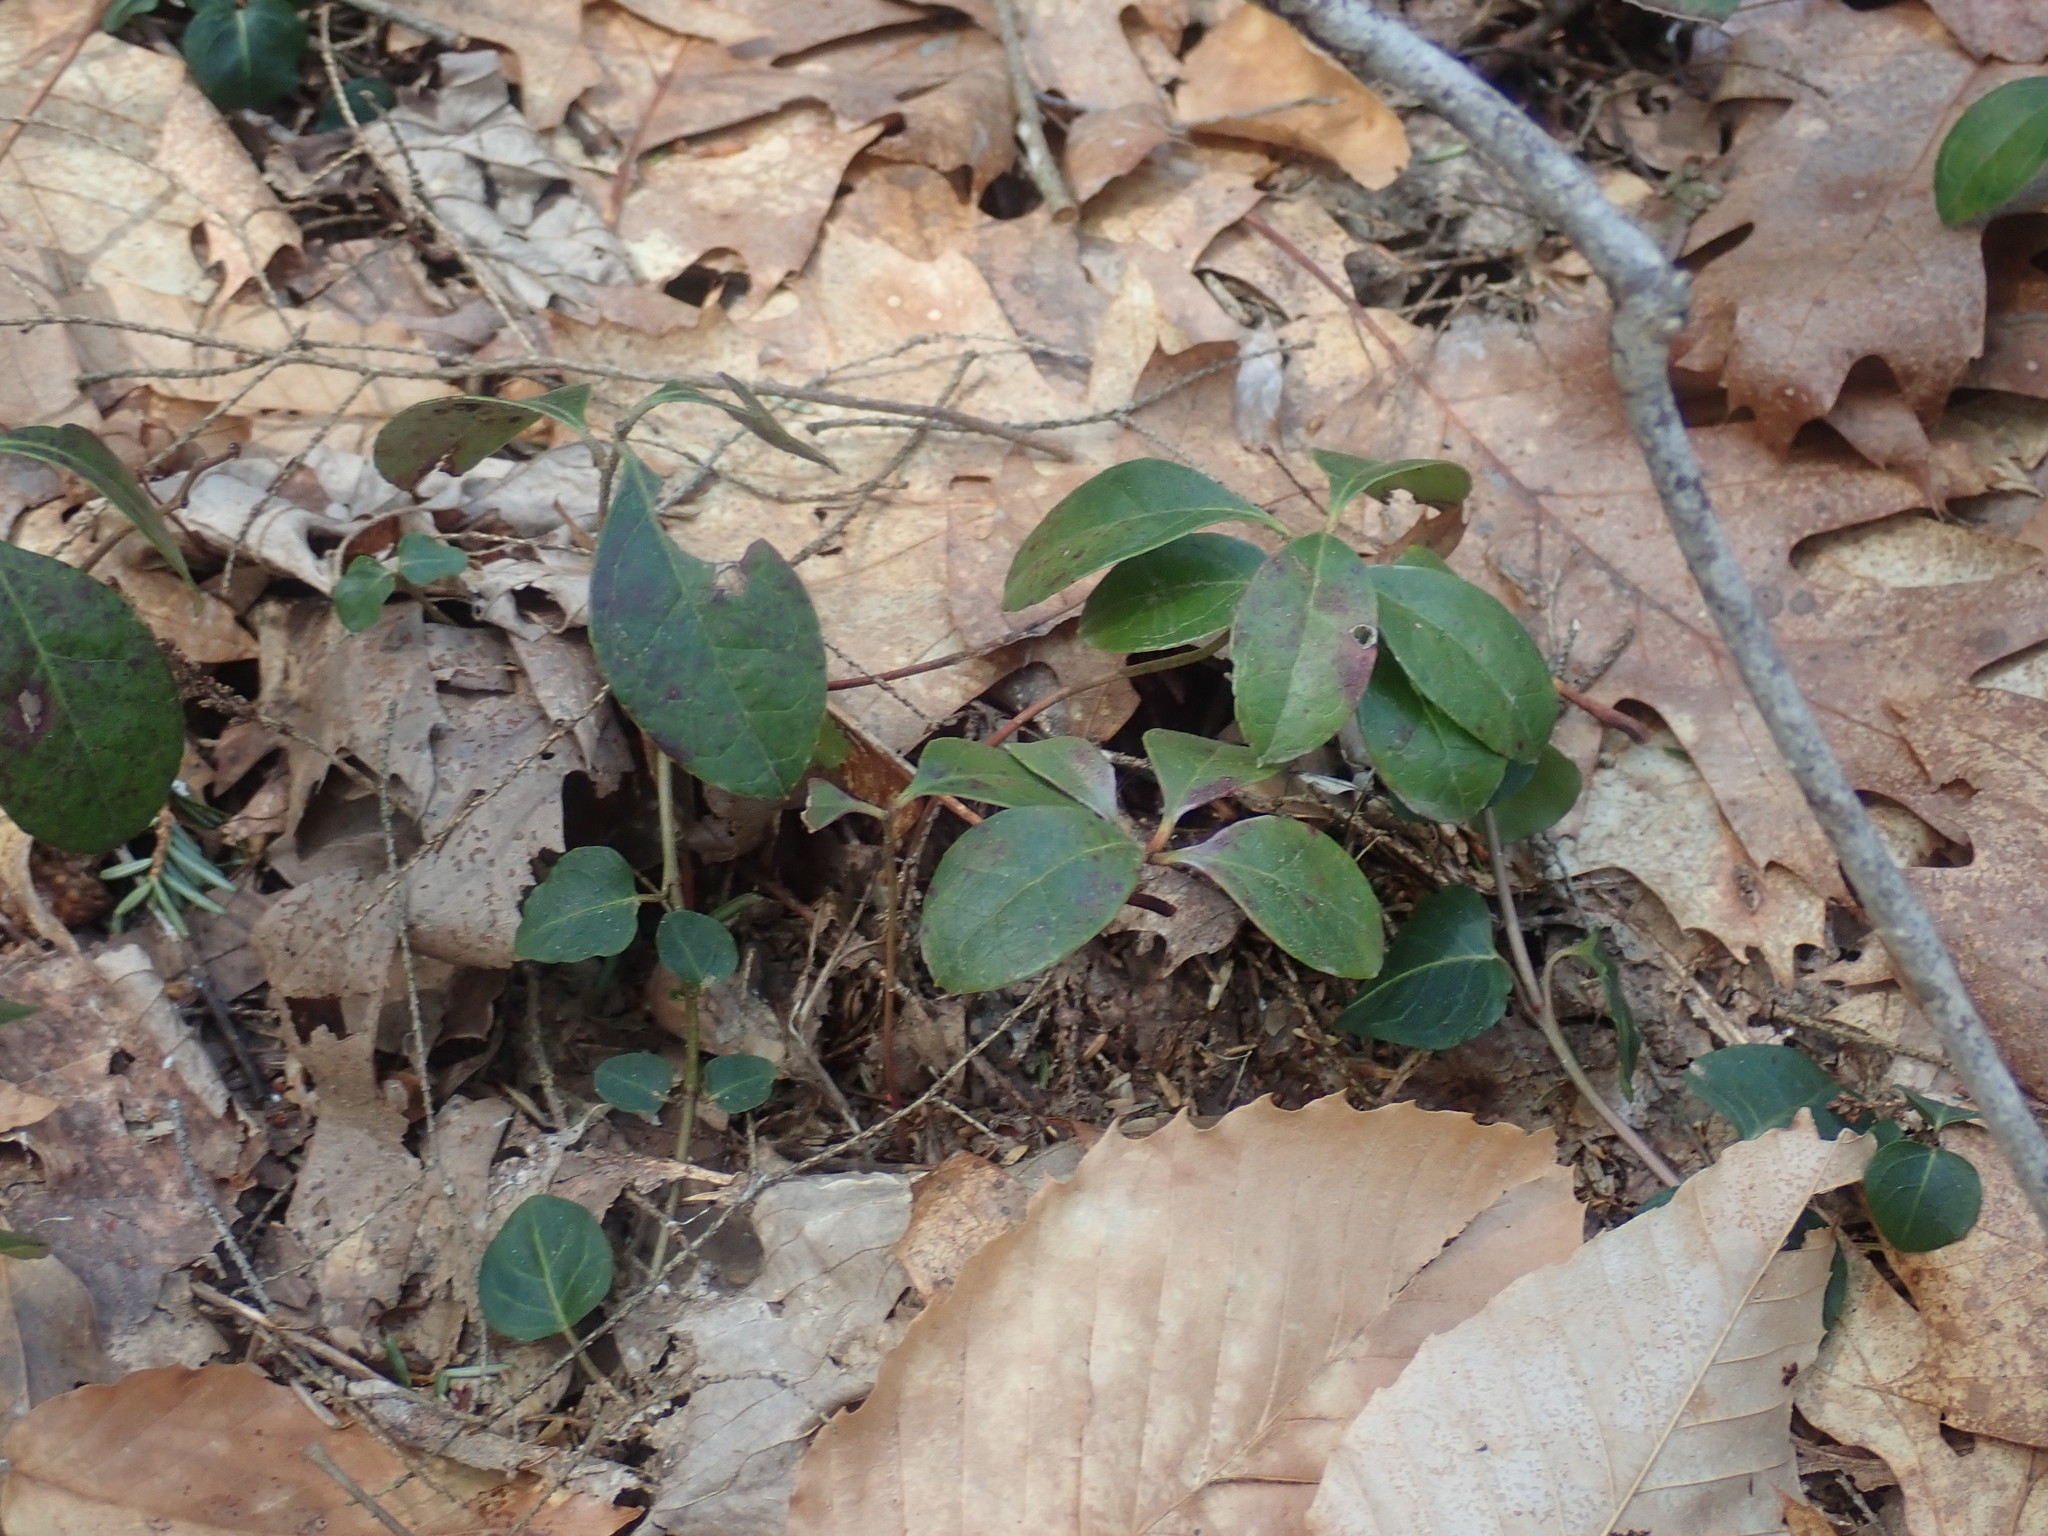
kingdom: Plantae
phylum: Tracheophyta
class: Magnoliopsida
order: Ericales
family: Ericaceae
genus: Gaultheria
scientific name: Gaultheria procumbens
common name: Checkerberry
